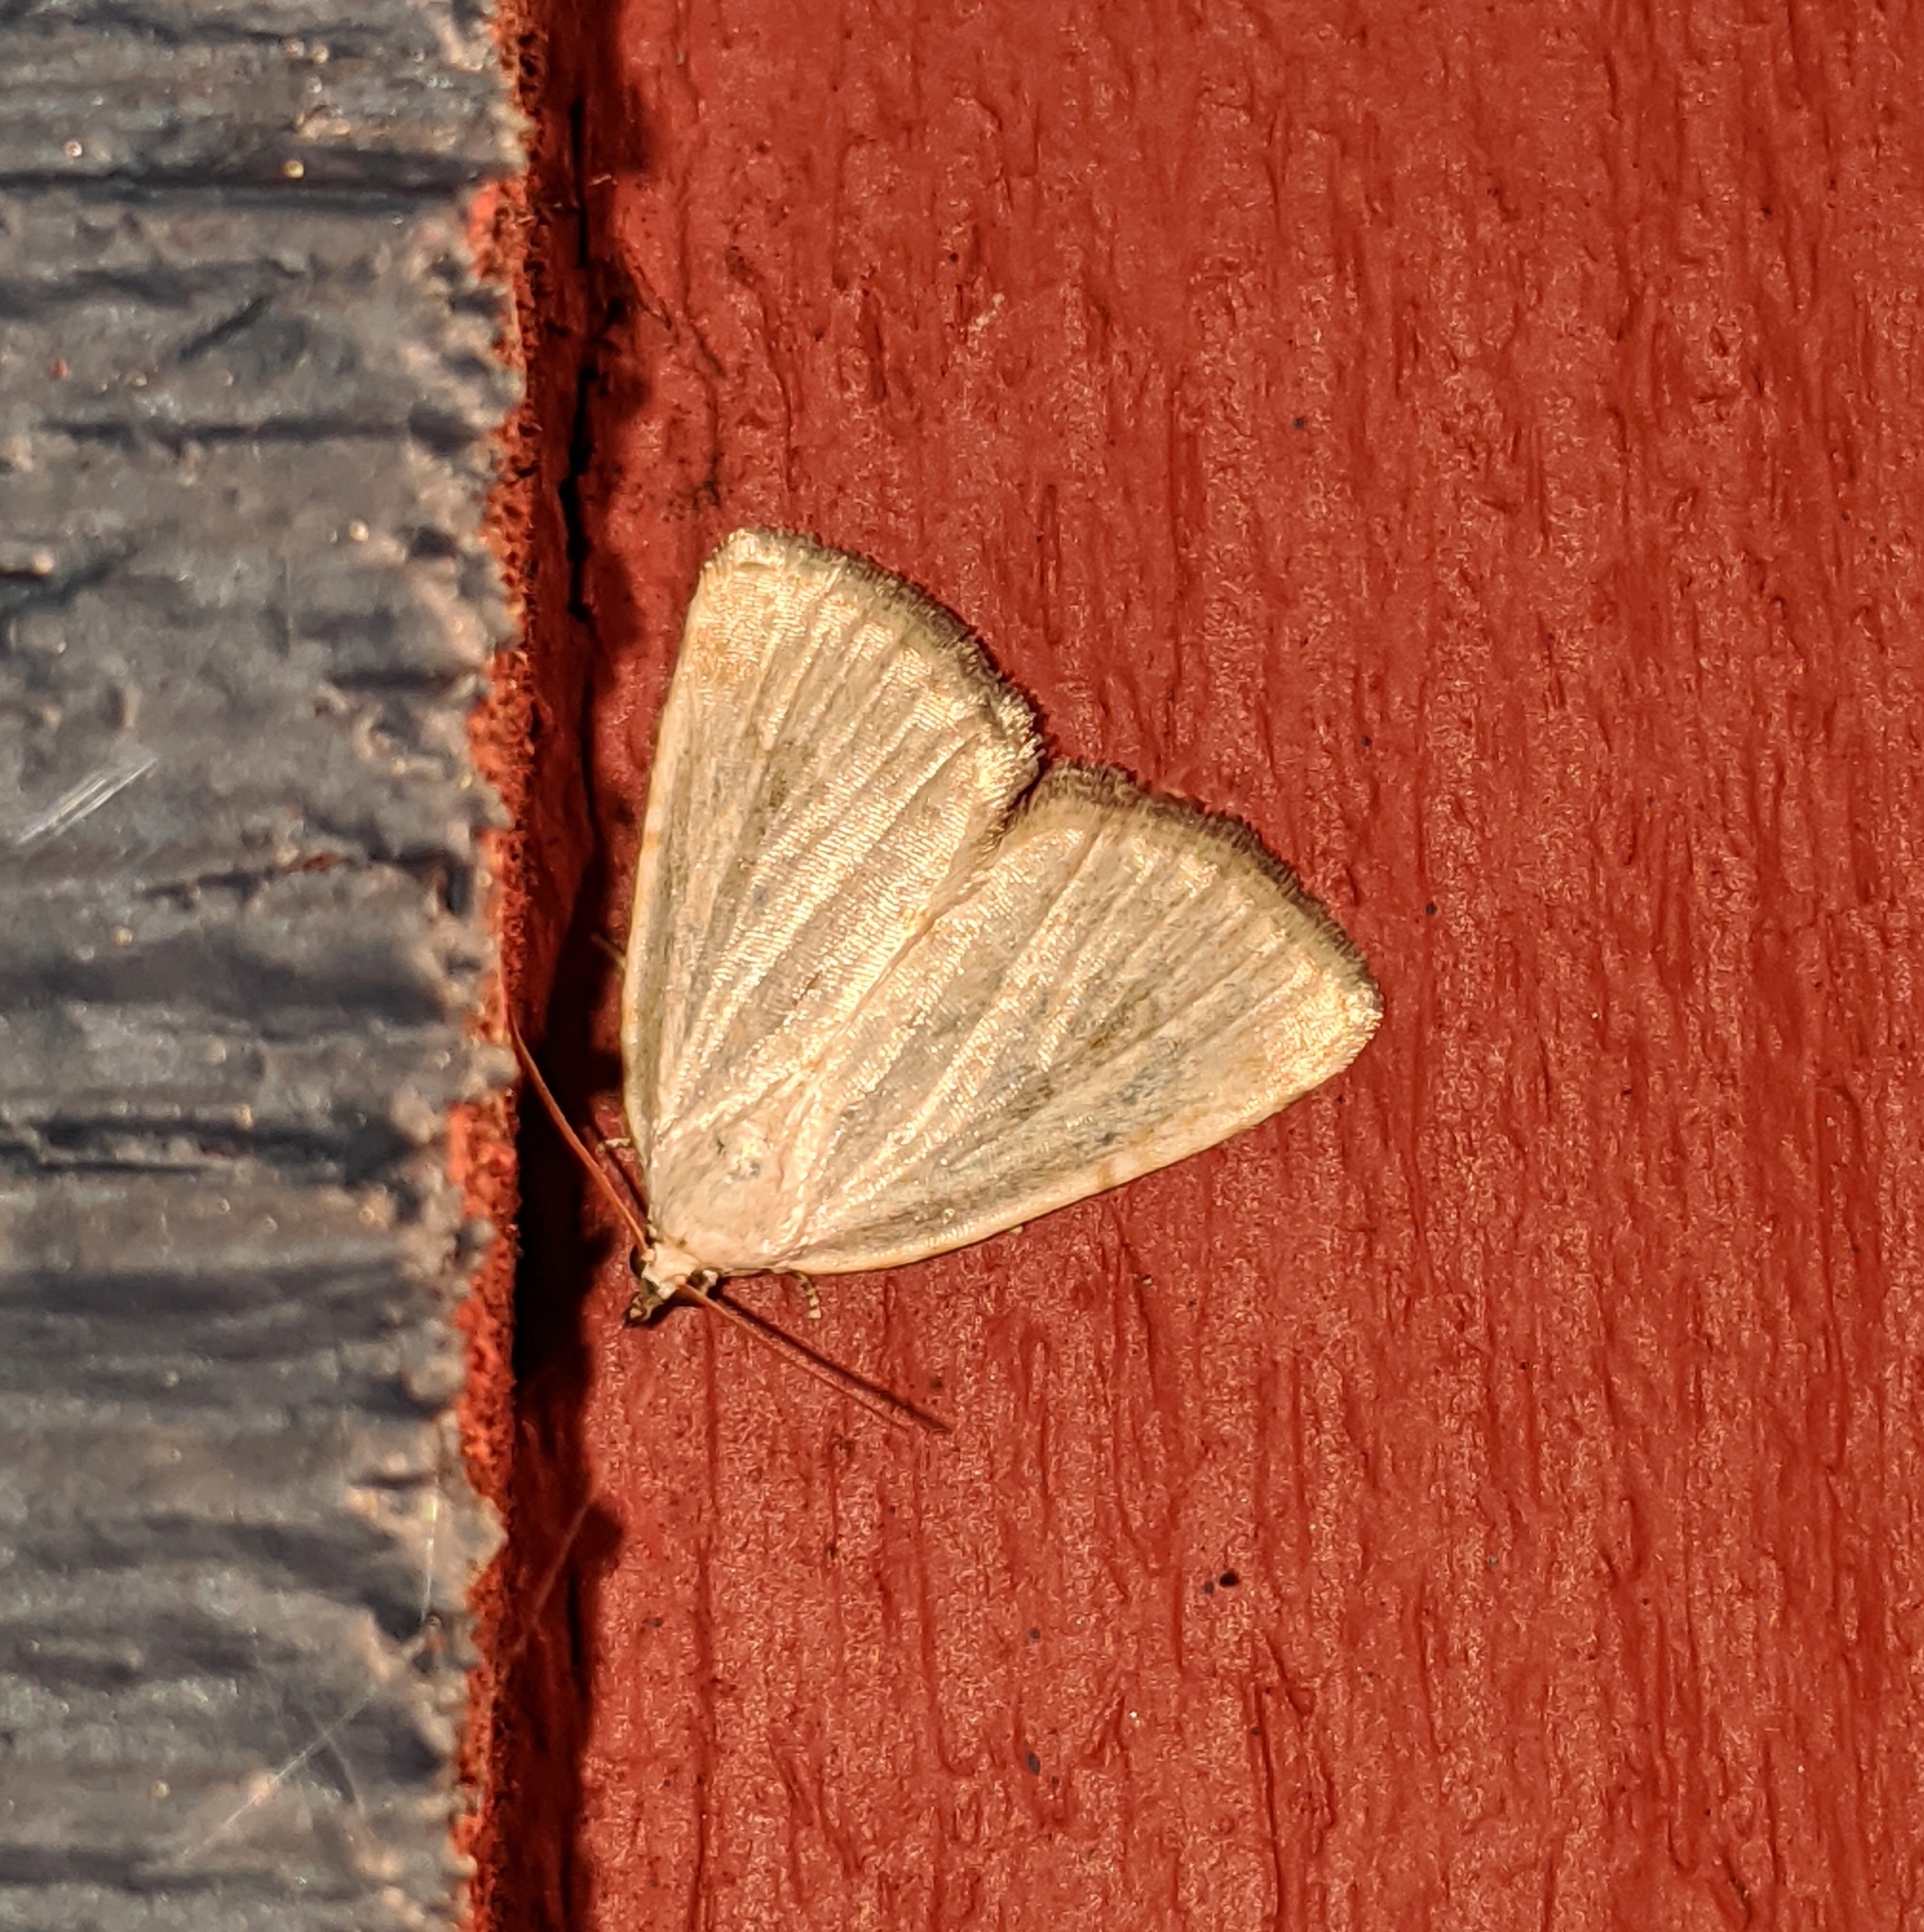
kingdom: Animalia
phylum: Arthropoda
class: Insecta
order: Lepidoptera
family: Noctuidae
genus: Protodeltote
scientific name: Protodeltote albidula
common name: Pale glyph
